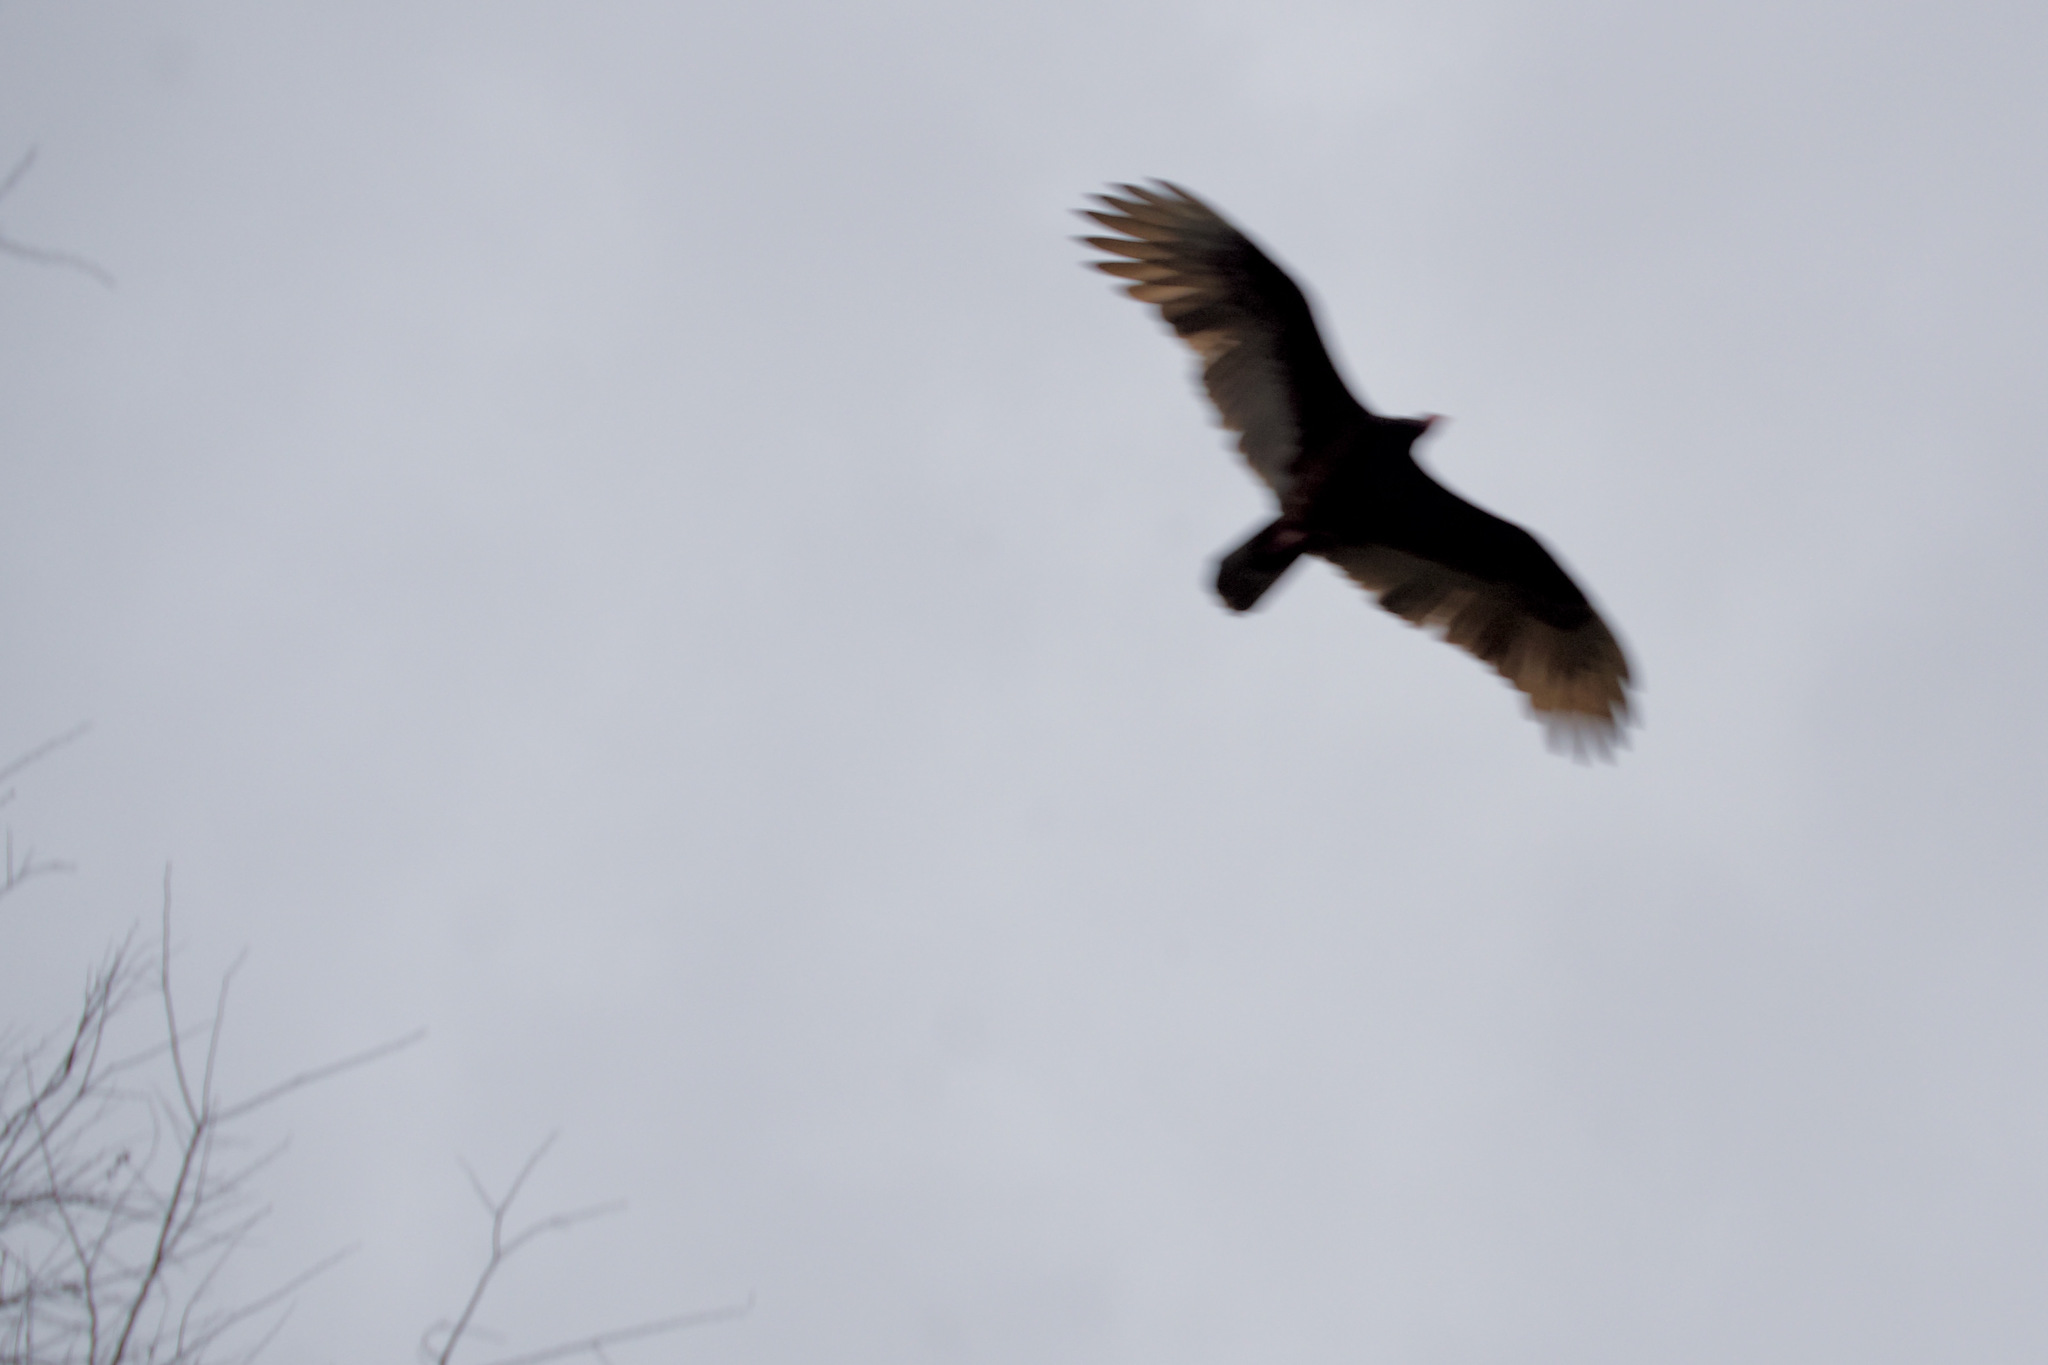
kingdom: Animalia
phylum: Chordata
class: Aves
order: Accipitriformes
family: Cathartidae
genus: Cathartes
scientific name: Cathartes aura
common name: Turkey vulture
